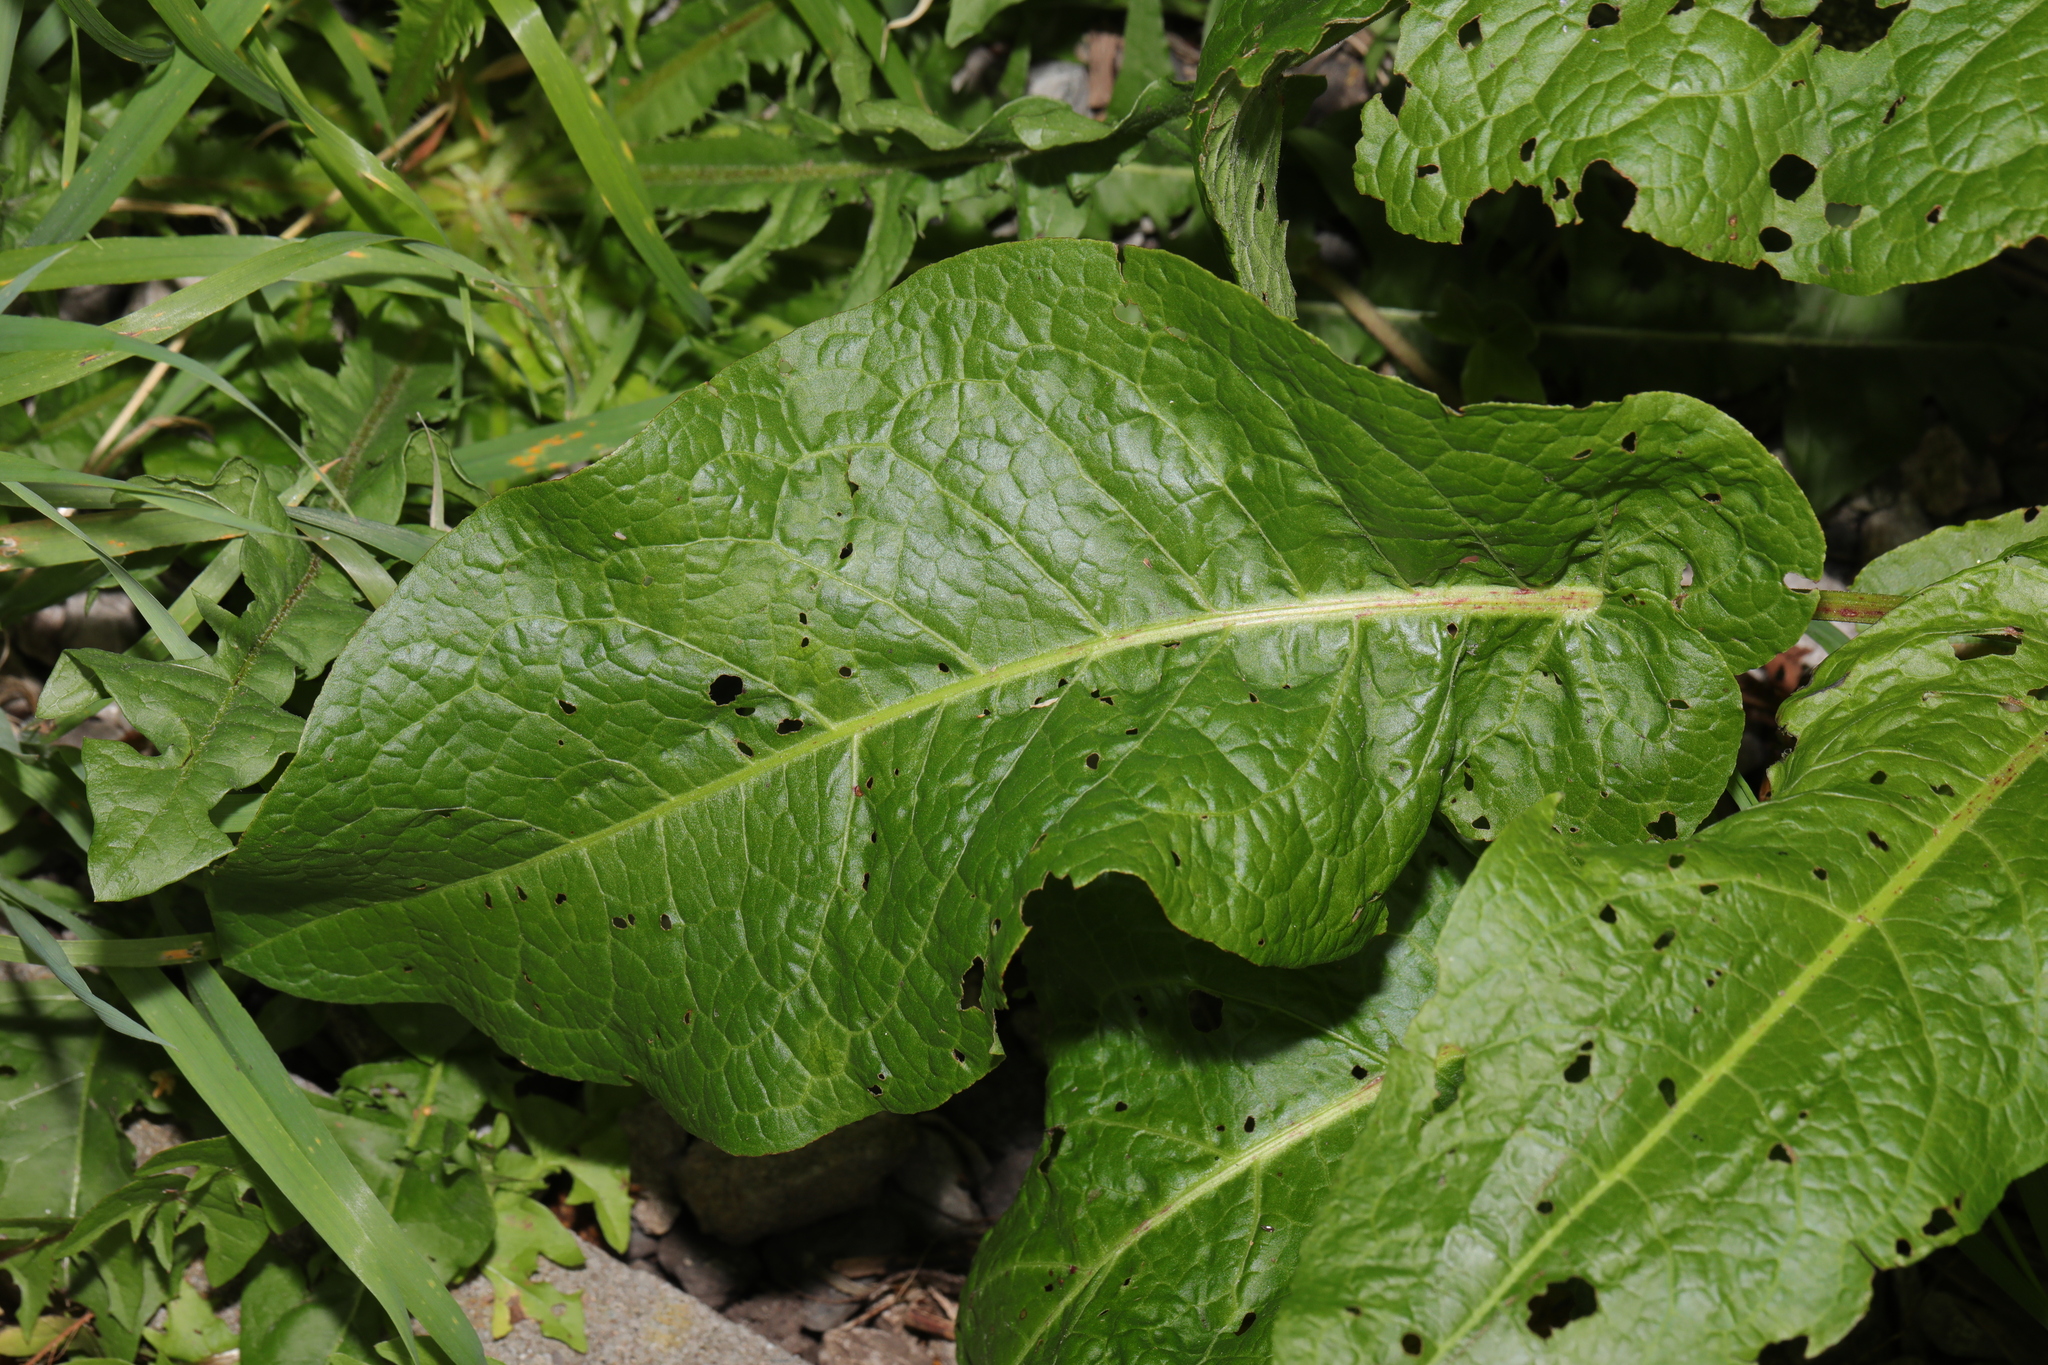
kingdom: Plantae
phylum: Tracheophyta
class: Magnoliopsida
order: Caryophyllales
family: Polygonaceae
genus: Rumex
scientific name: Rumex obtusifolius
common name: Bitter dock
